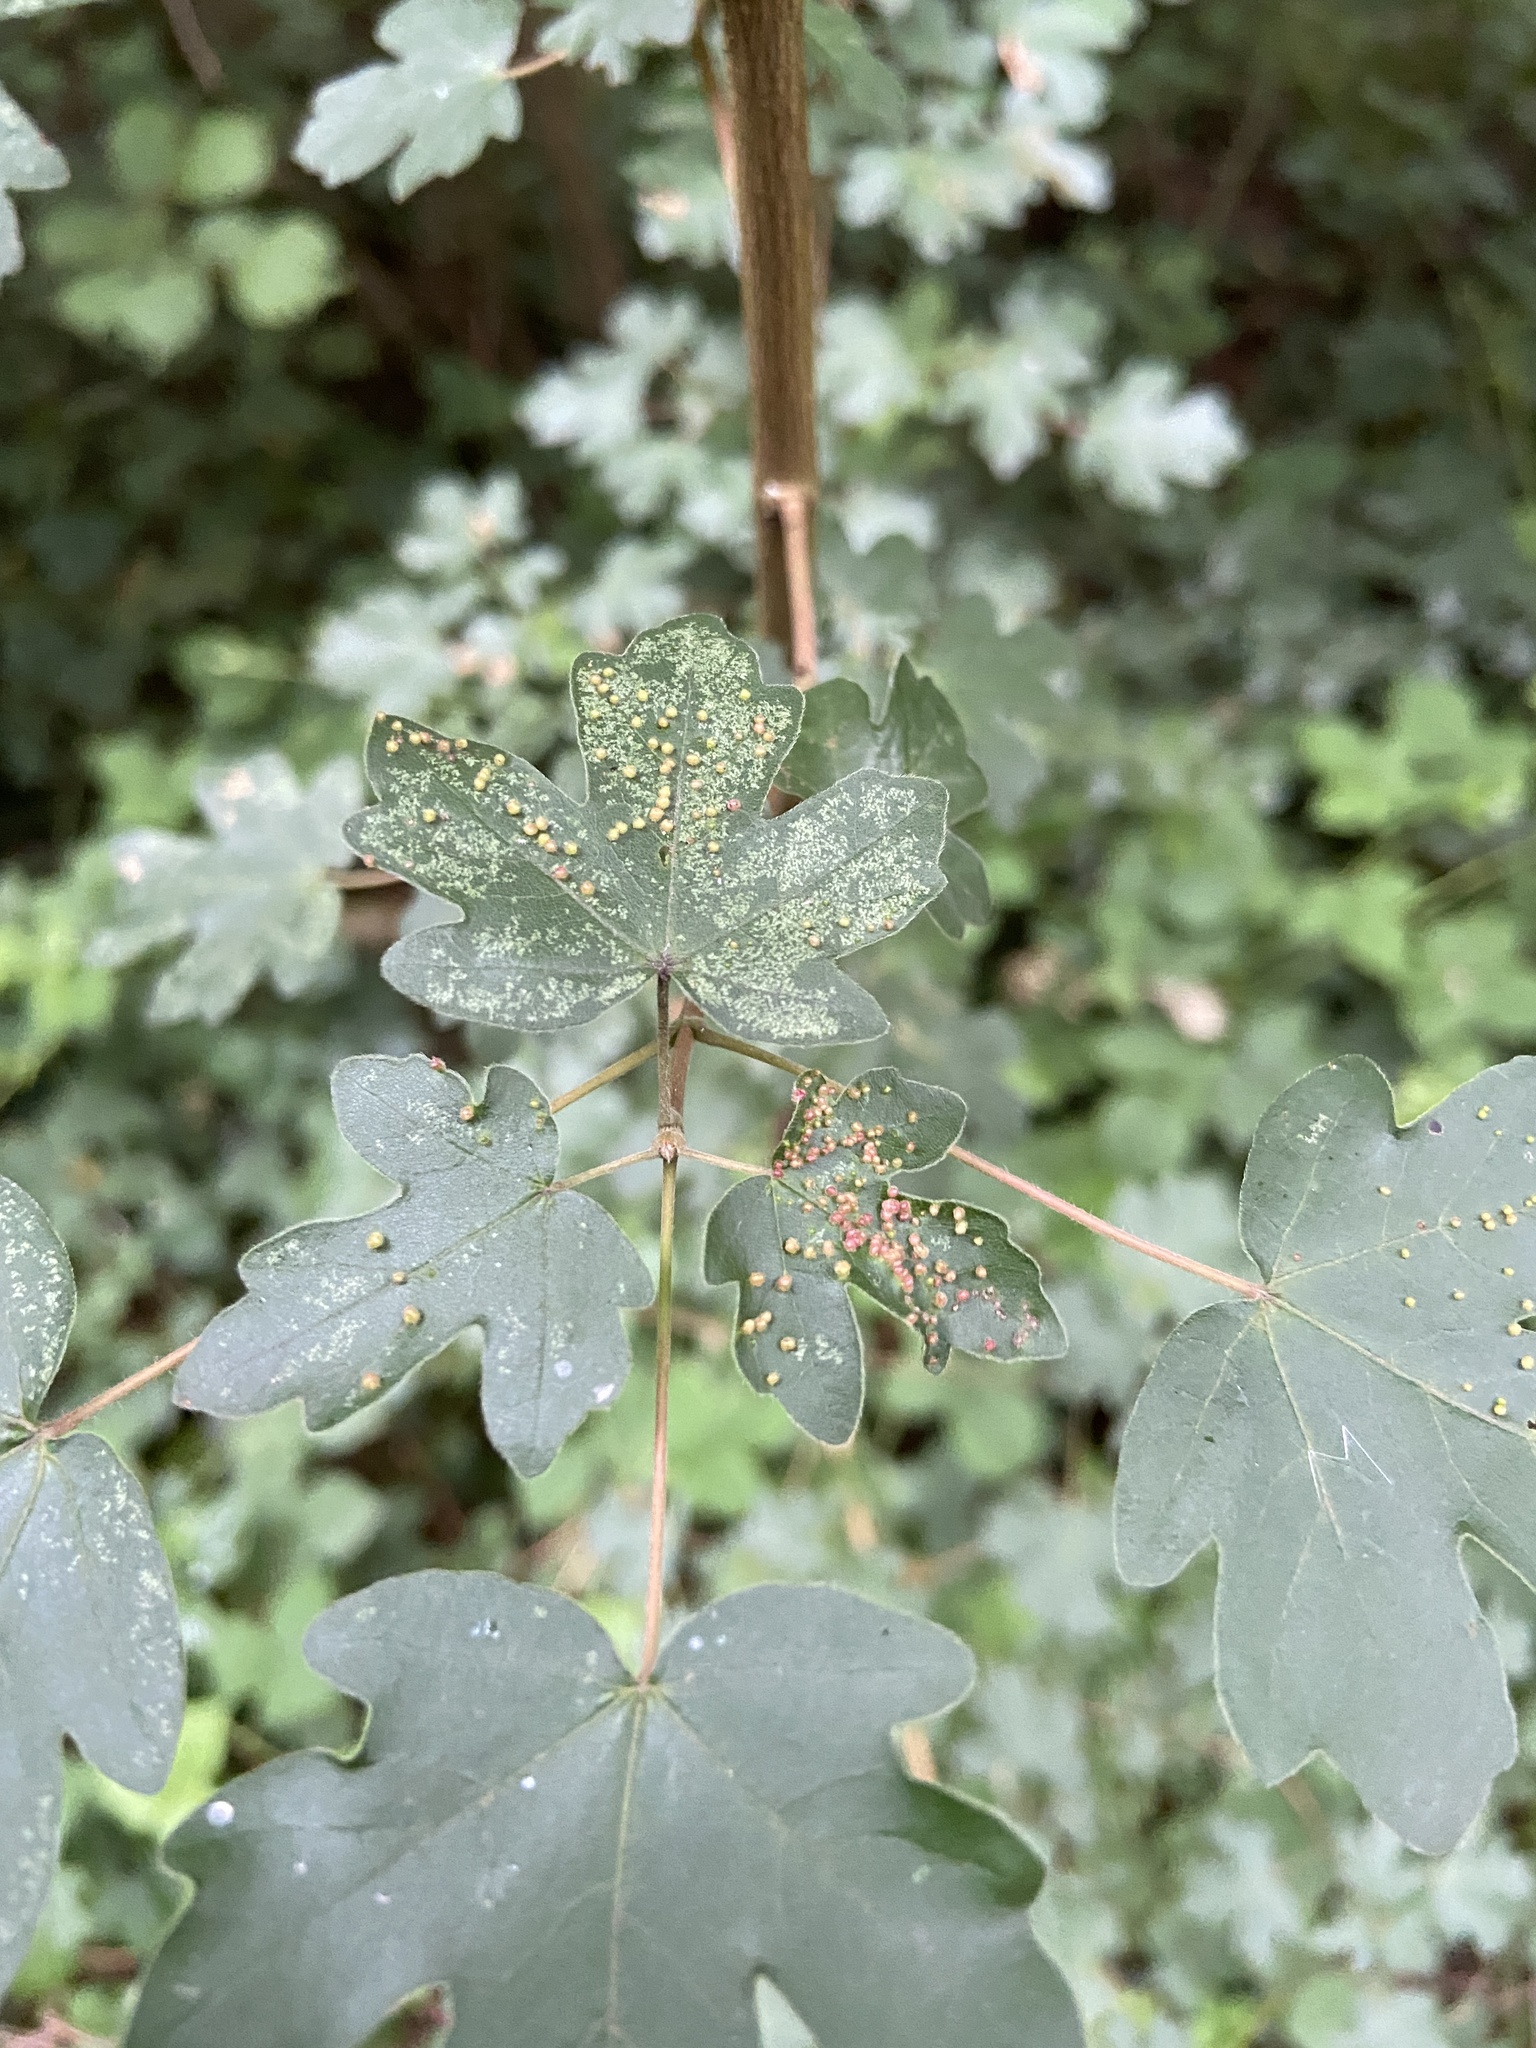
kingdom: Animalia
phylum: Arthropoda
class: Arachnida
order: Trombidiformes
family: Eriophyidae
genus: Aceria
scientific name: Aceria myriadeum
